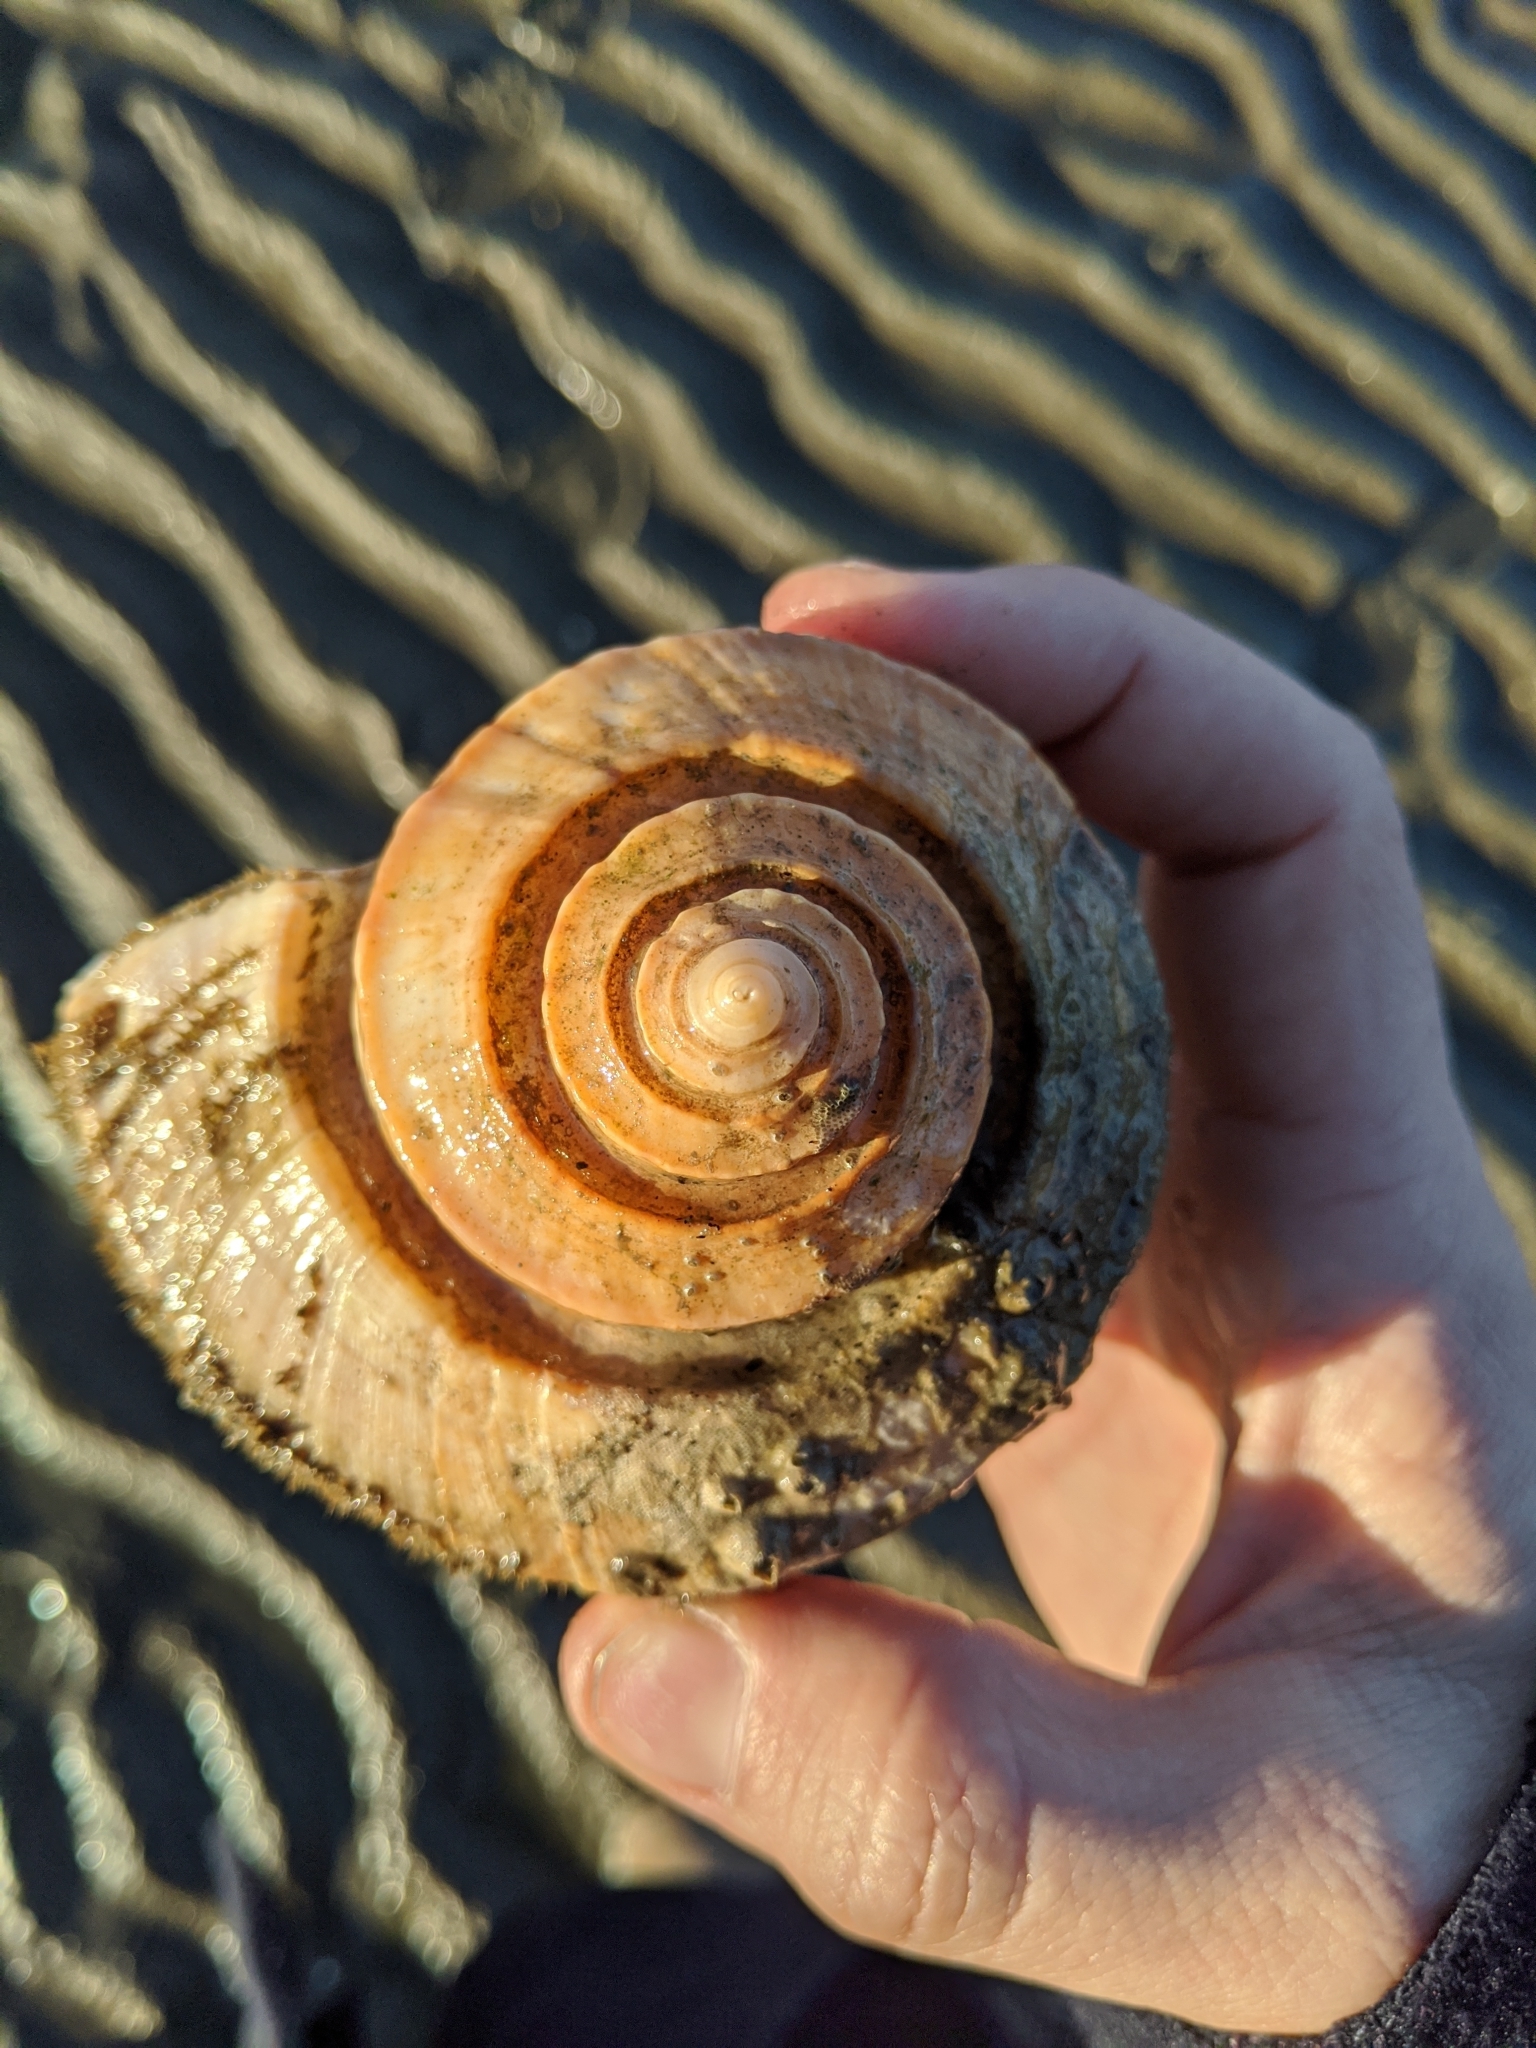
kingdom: Animalia
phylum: Mollusca
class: Gastropoda
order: Neogastropoda
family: Busyconidae
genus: Busycotypus
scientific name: Busycotypus canaliculatus
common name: Channeled whelk
